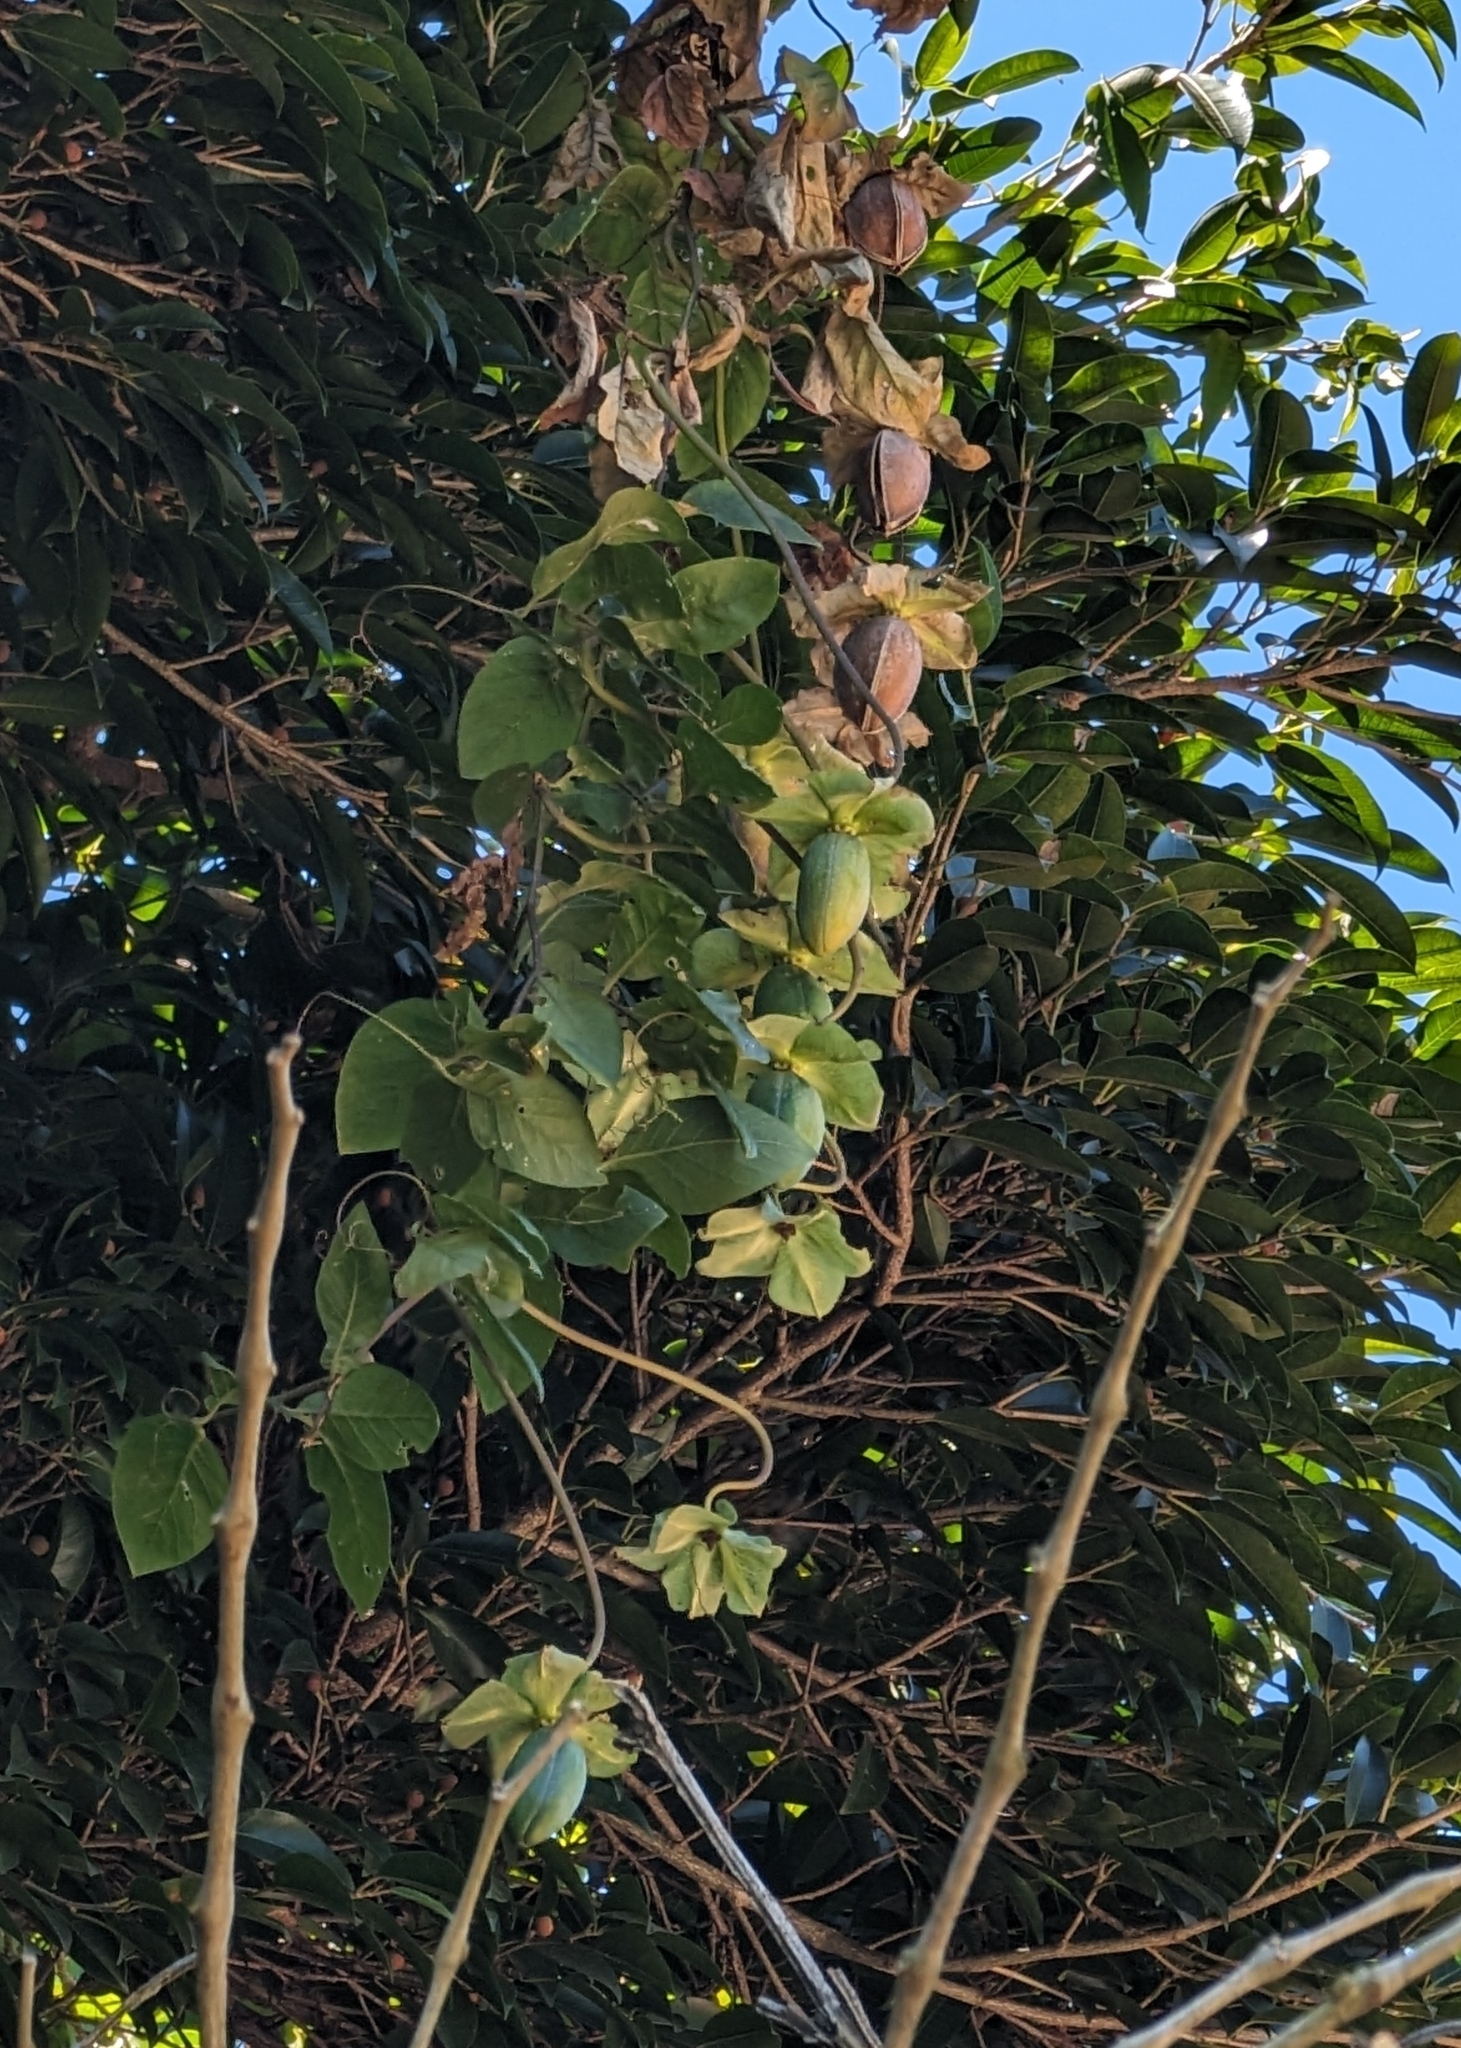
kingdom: Plantae
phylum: Tracheophyta
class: Magnoliopsida
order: Ericales
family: Polemoniaceae
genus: Cobaea
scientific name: Cobaea scandens
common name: Cup-and-saucer-vine
